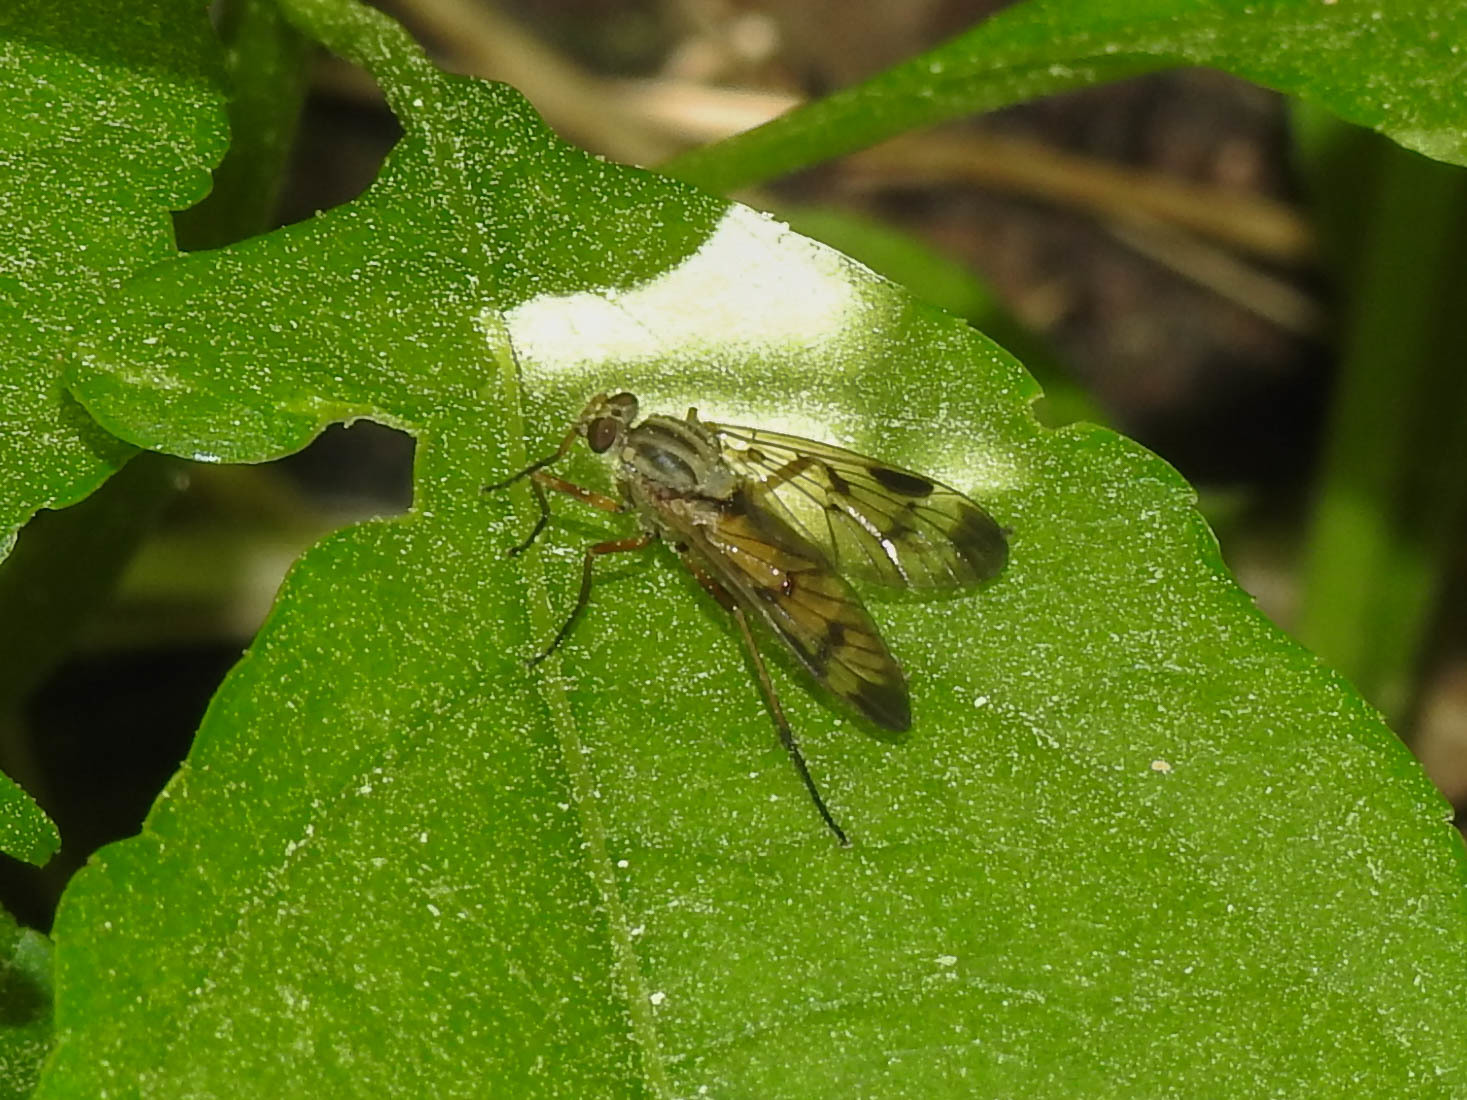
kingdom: Animalia
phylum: Arthropoda
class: Insecta
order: Diptera
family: Rhagionidae
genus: Rhagio
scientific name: Rhagio scolopacea
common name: Downlooker snipefly
